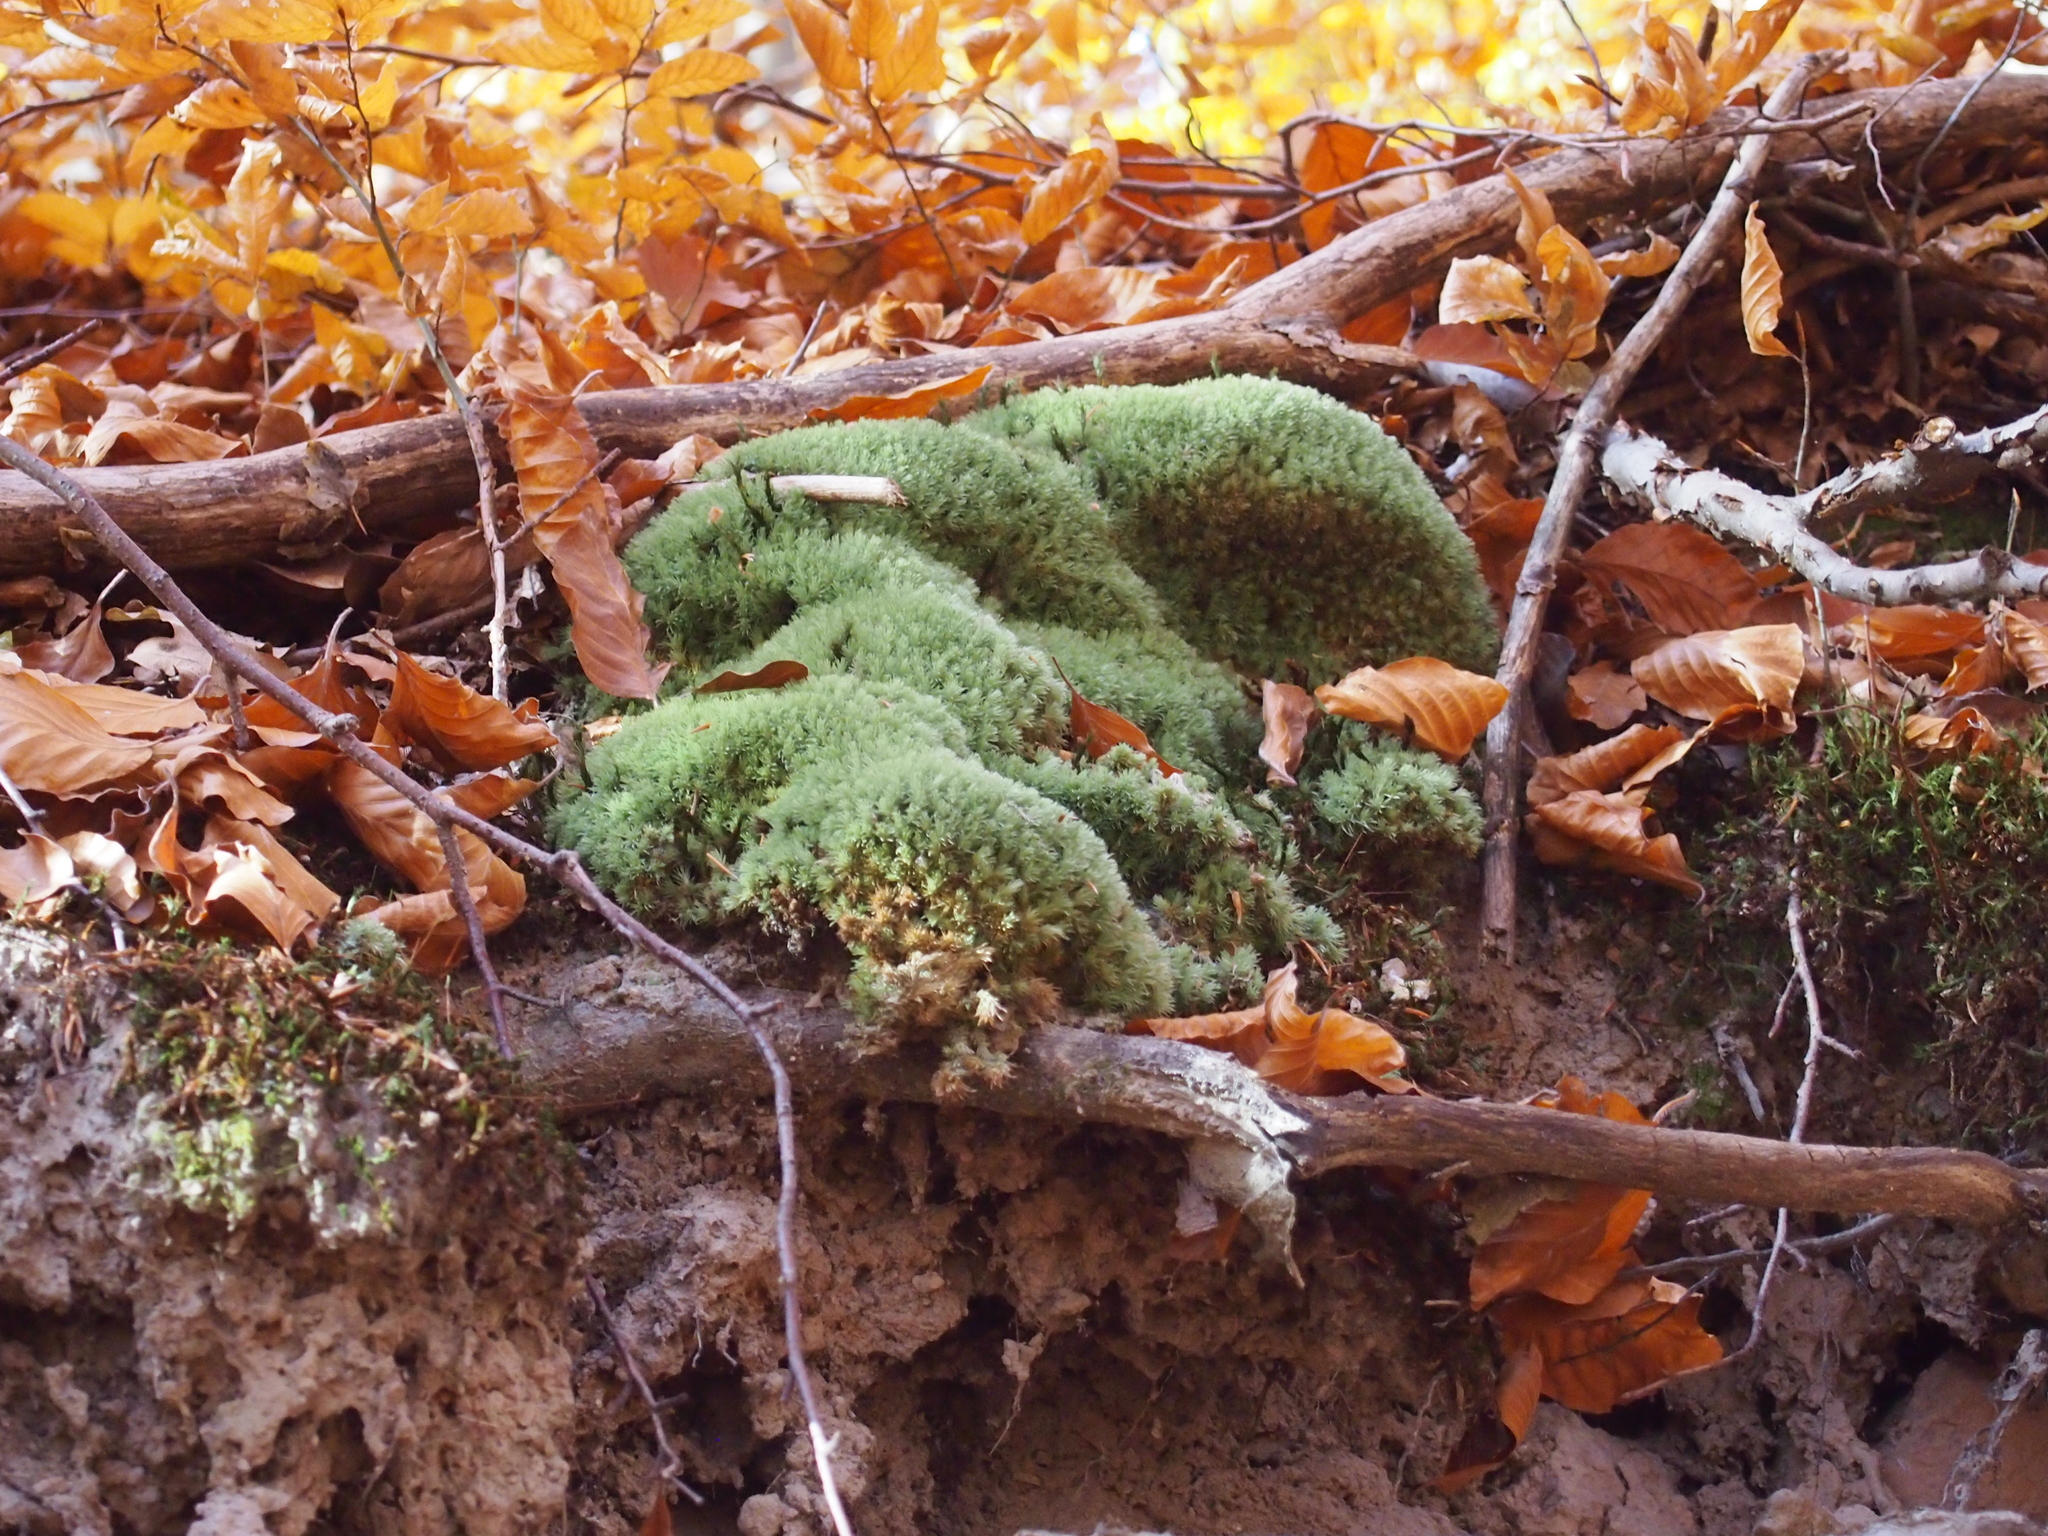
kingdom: Plantae
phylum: Bryophyta
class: Bryopsida
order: Dicranales
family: Leucobryaceae
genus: Leucobryum
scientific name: Leucobryum glaucum
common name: Large white-moss
